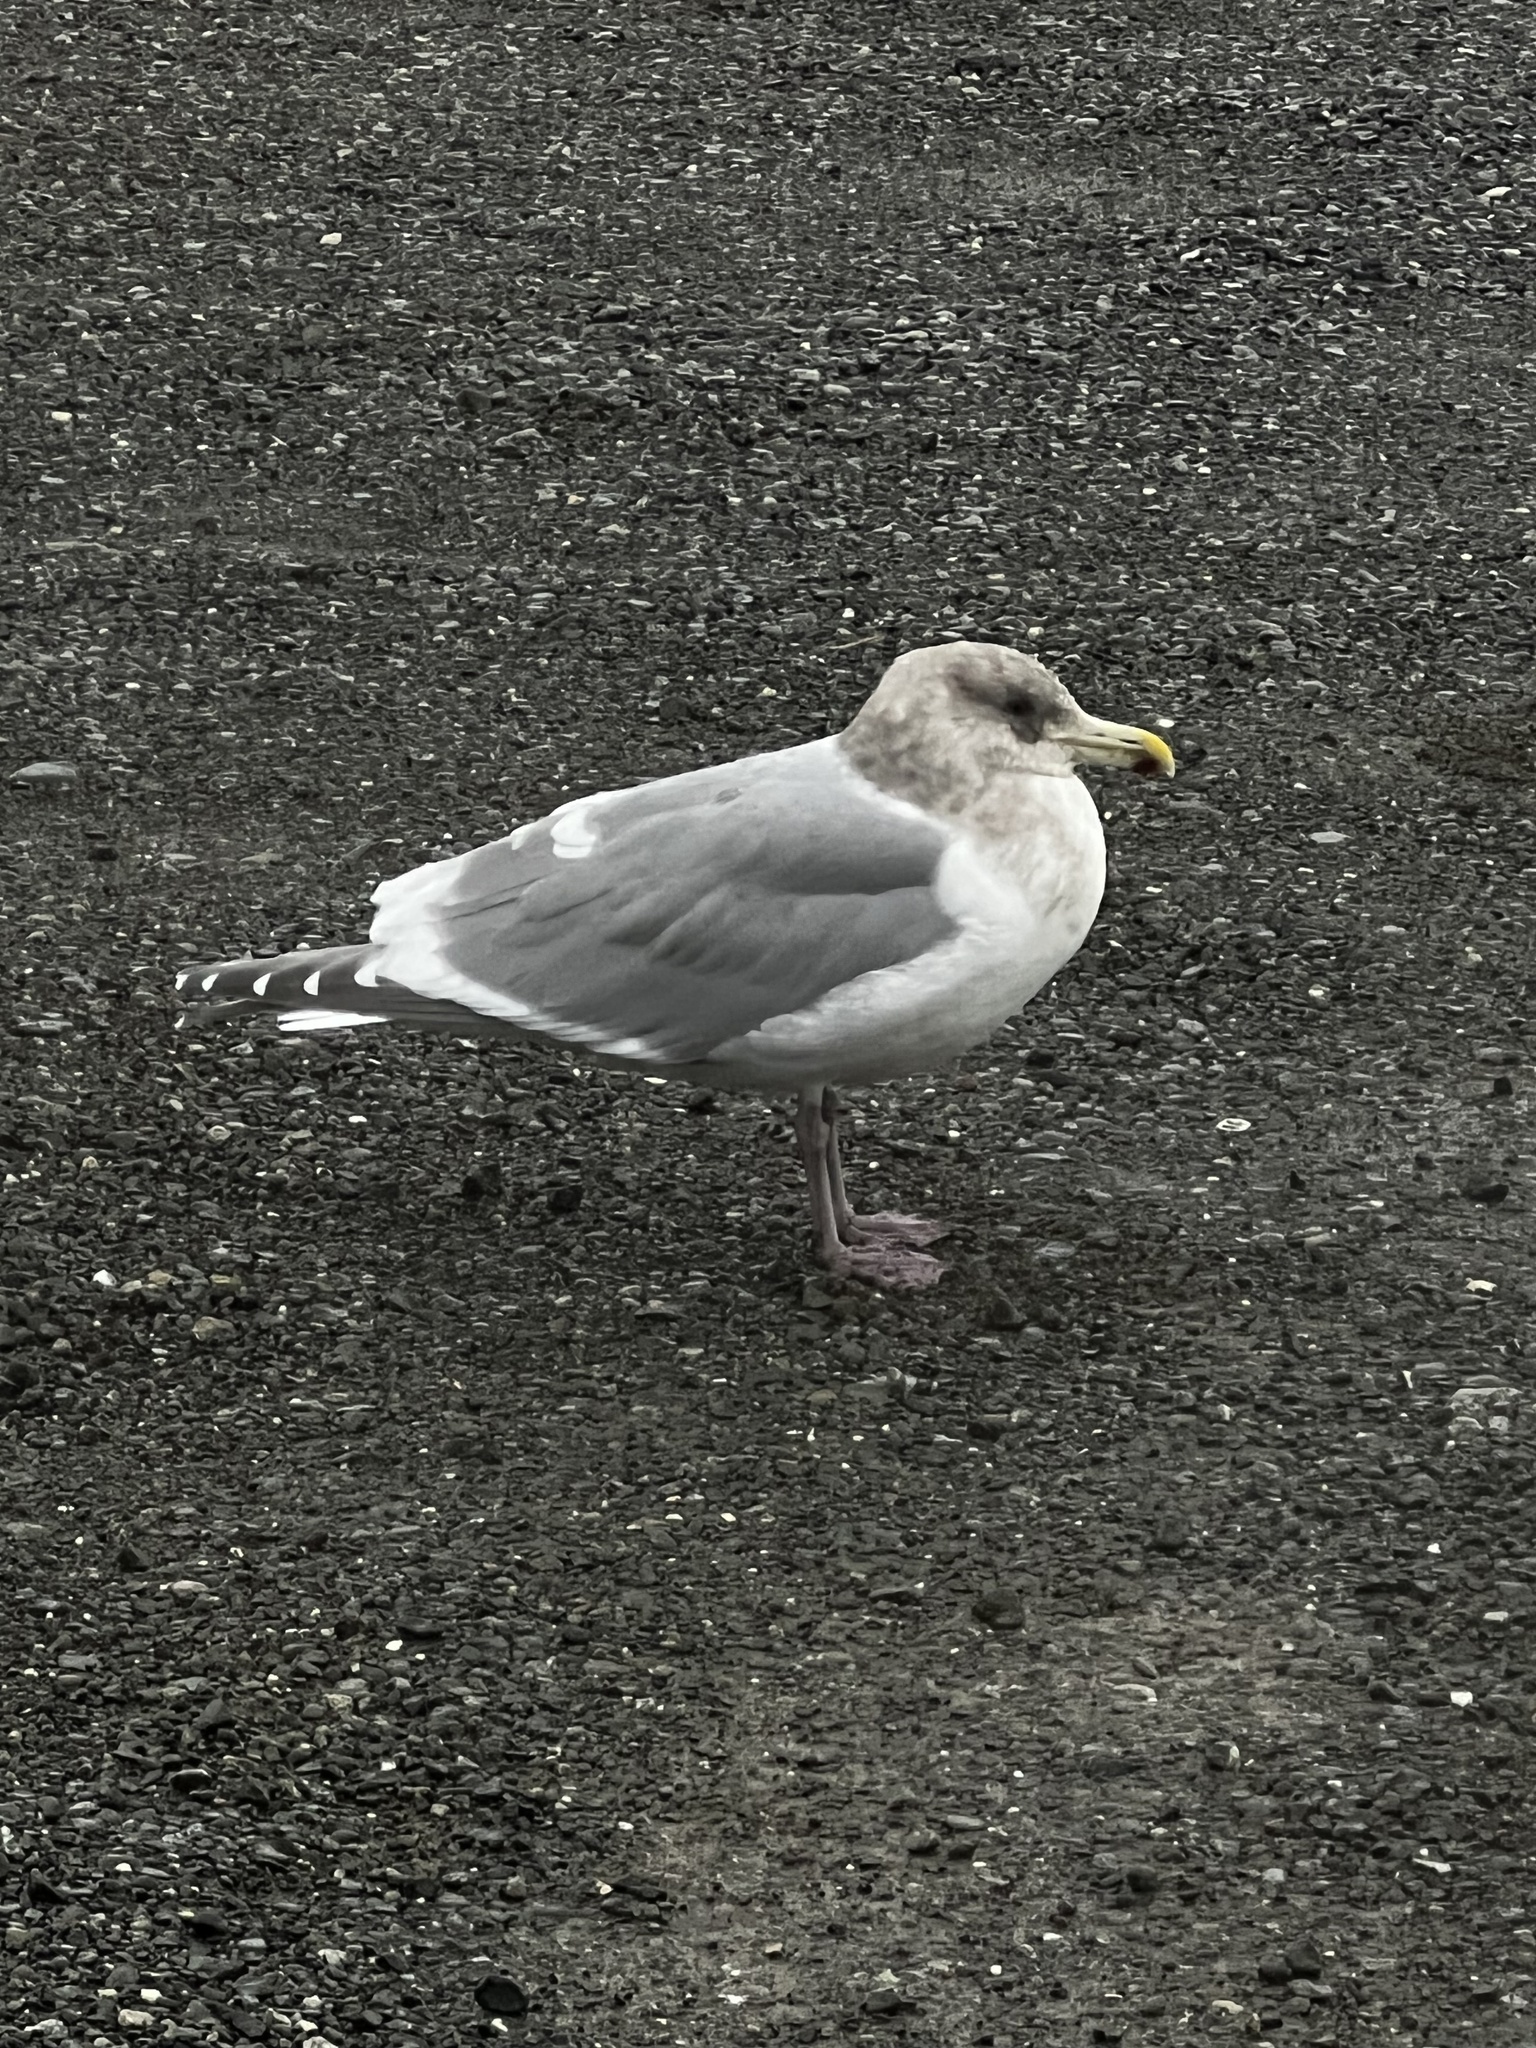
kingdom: Animalia
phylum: Chordata
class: Aves
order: Charadriiformes
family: Laridae
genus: Larus
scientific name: Larus
